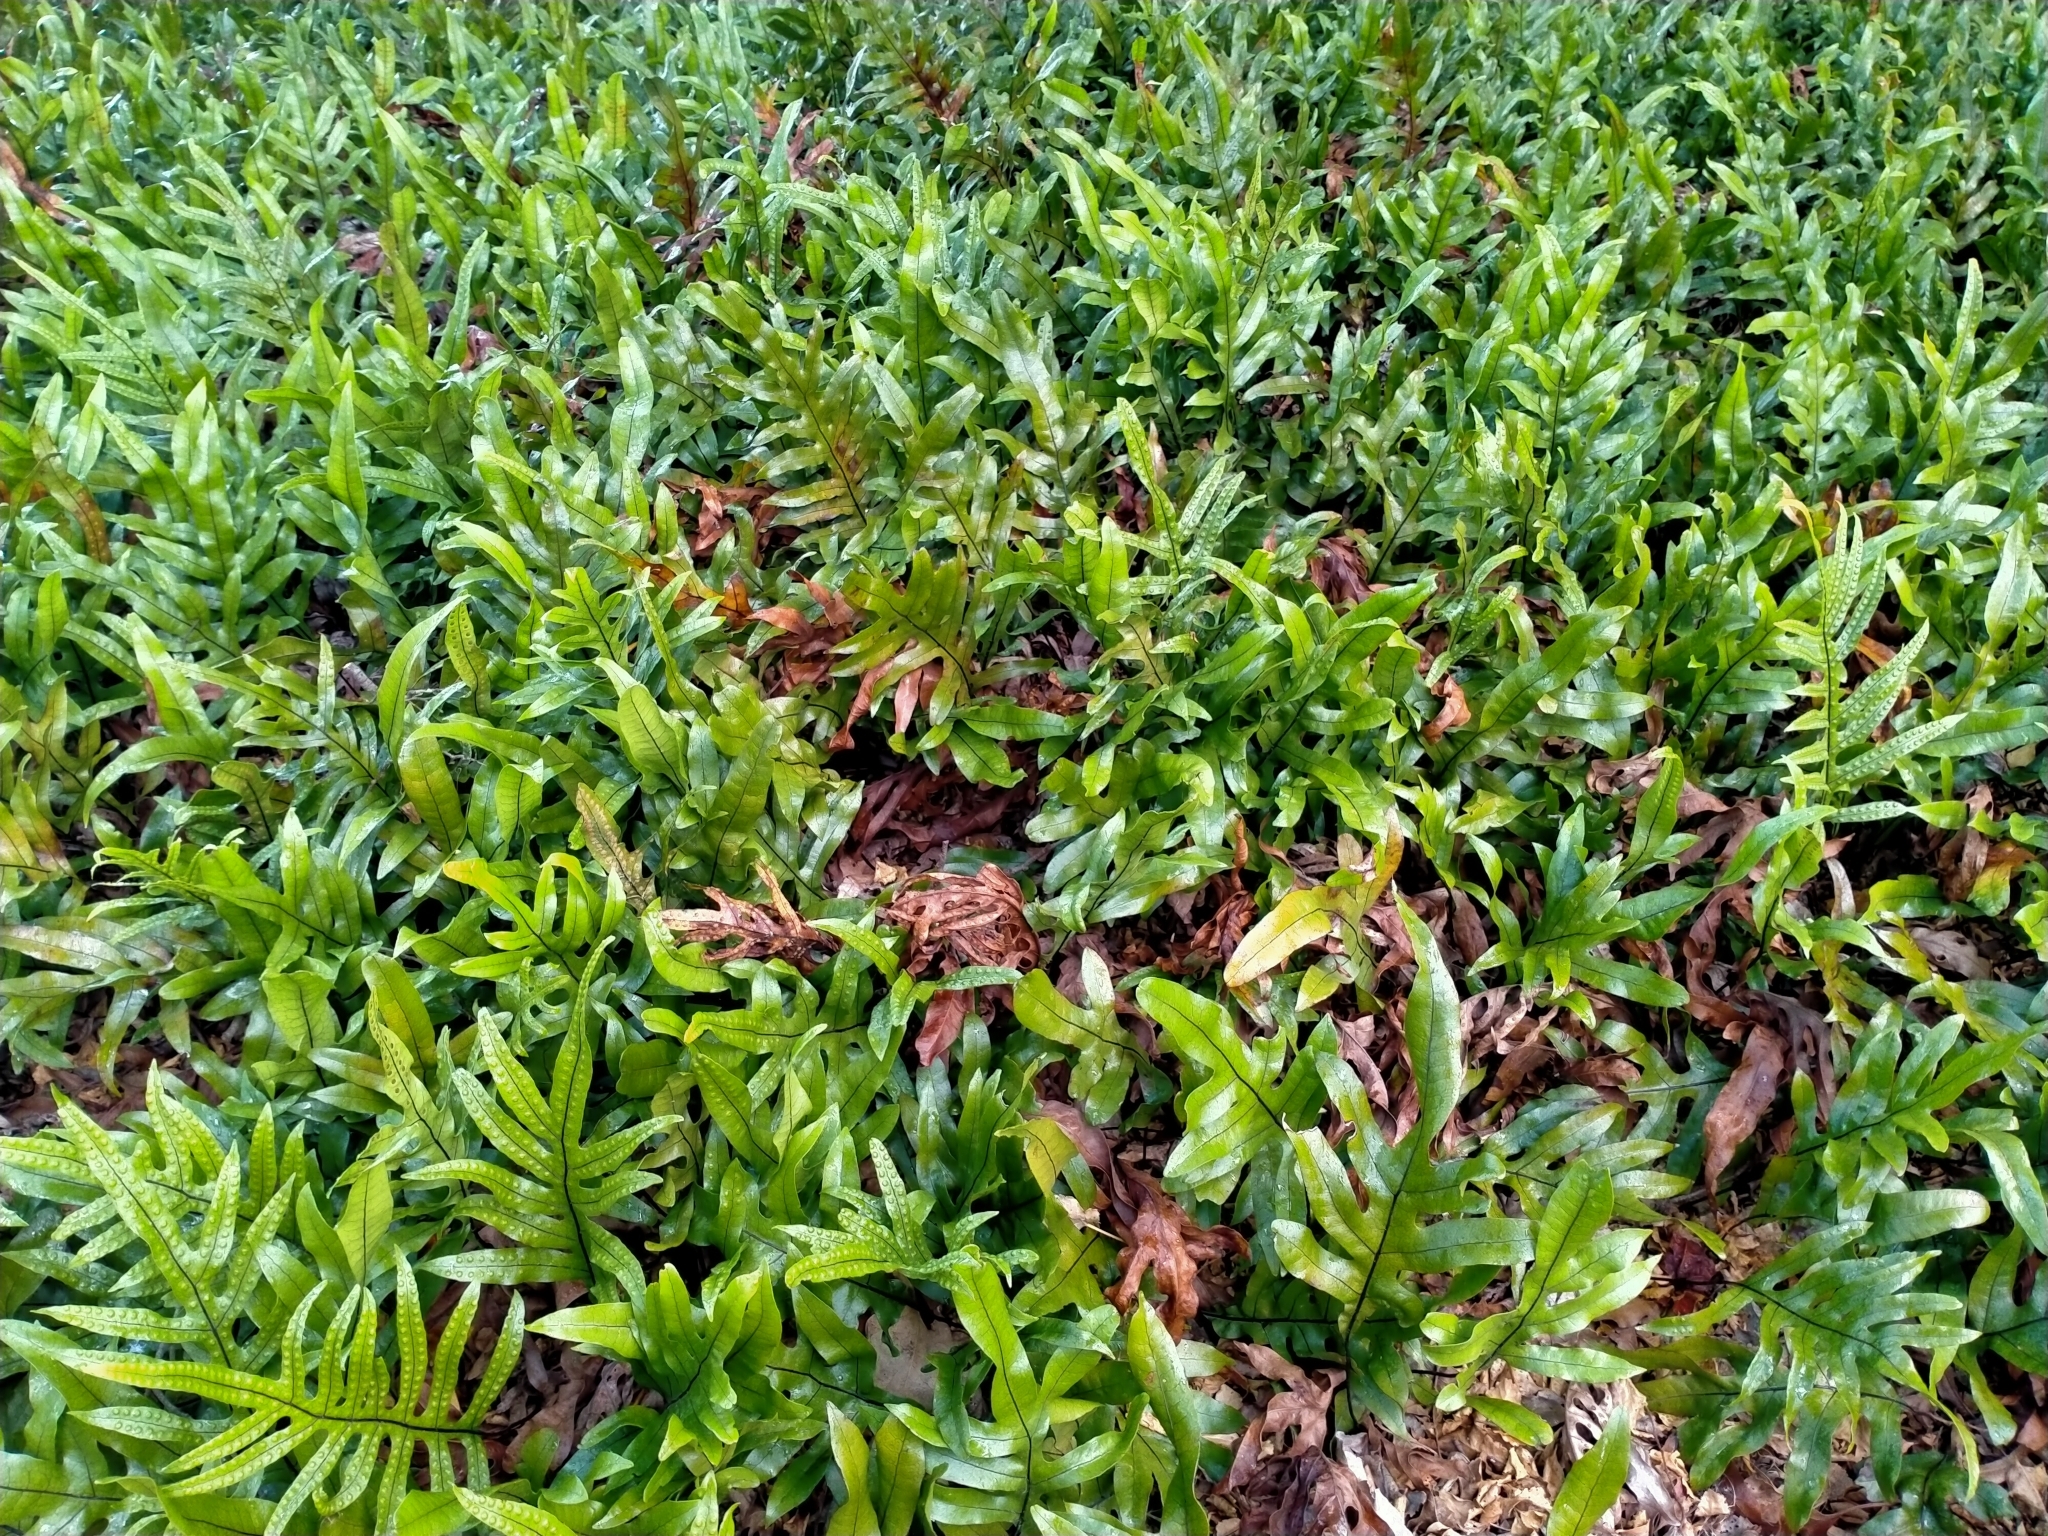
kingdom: Plantae
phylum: Tracheophyta
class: Polypodiopsida
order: Polypodiales
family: Polypodiaceae
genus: Lecanopteris
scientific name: Lecanopteris pustulata
